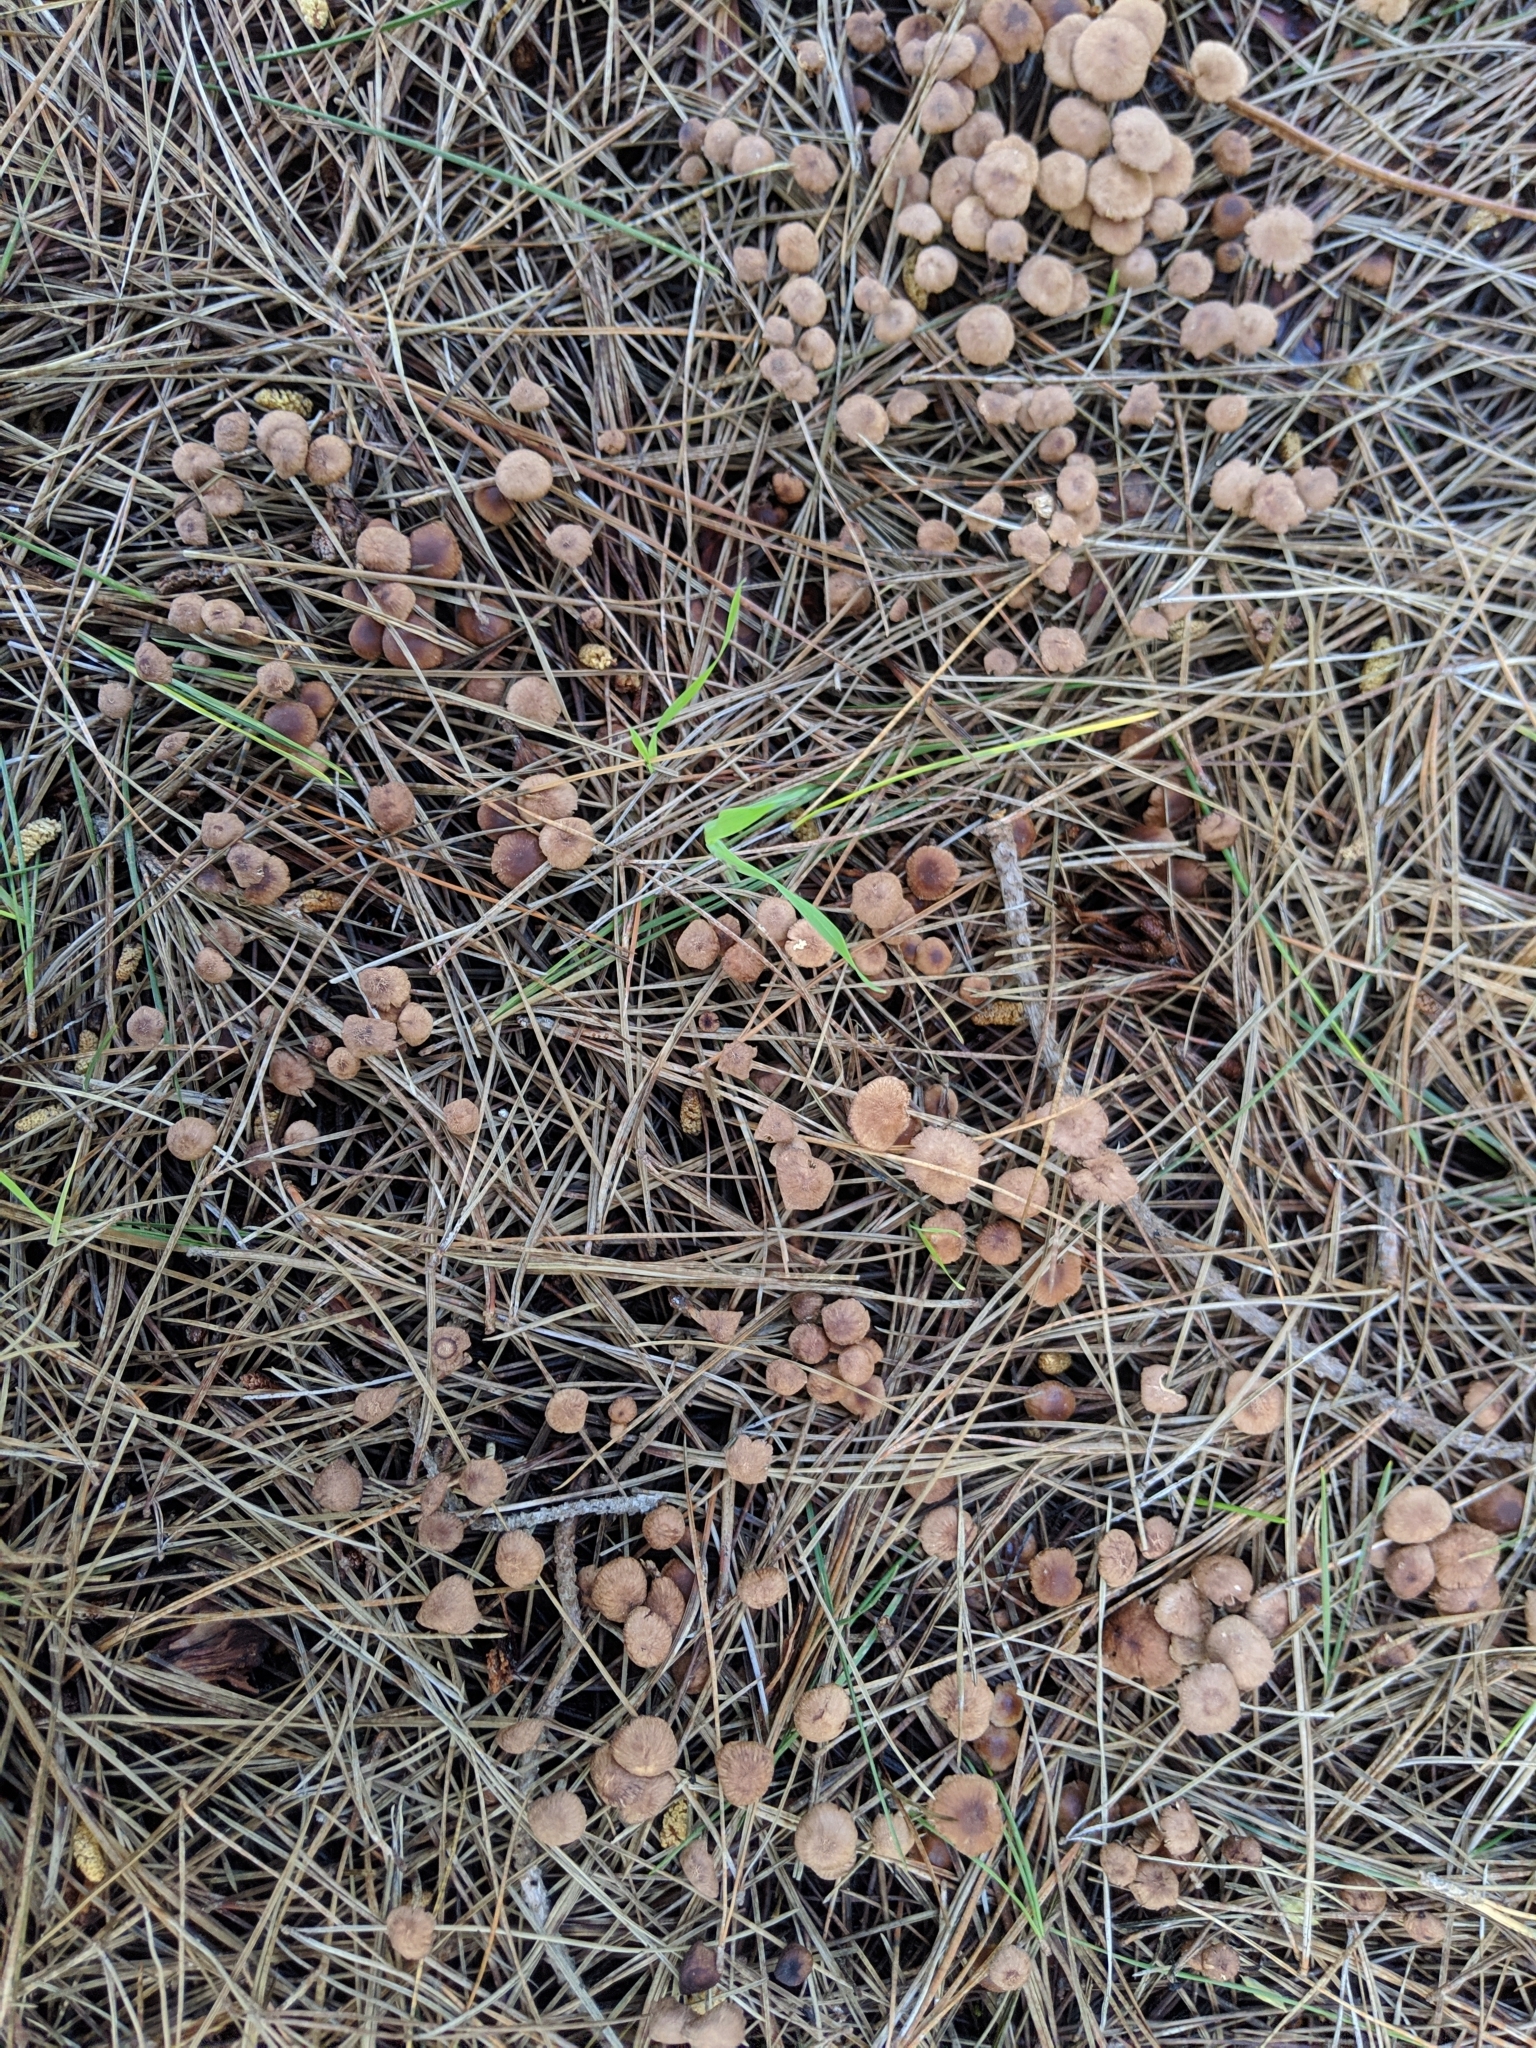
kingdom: Fungi
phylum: Basidiomycota
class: Agaricomycetes
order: Agaricales
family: Omphalotaceae
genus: Collybiopsis
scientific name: Collybiopsis villosipes
